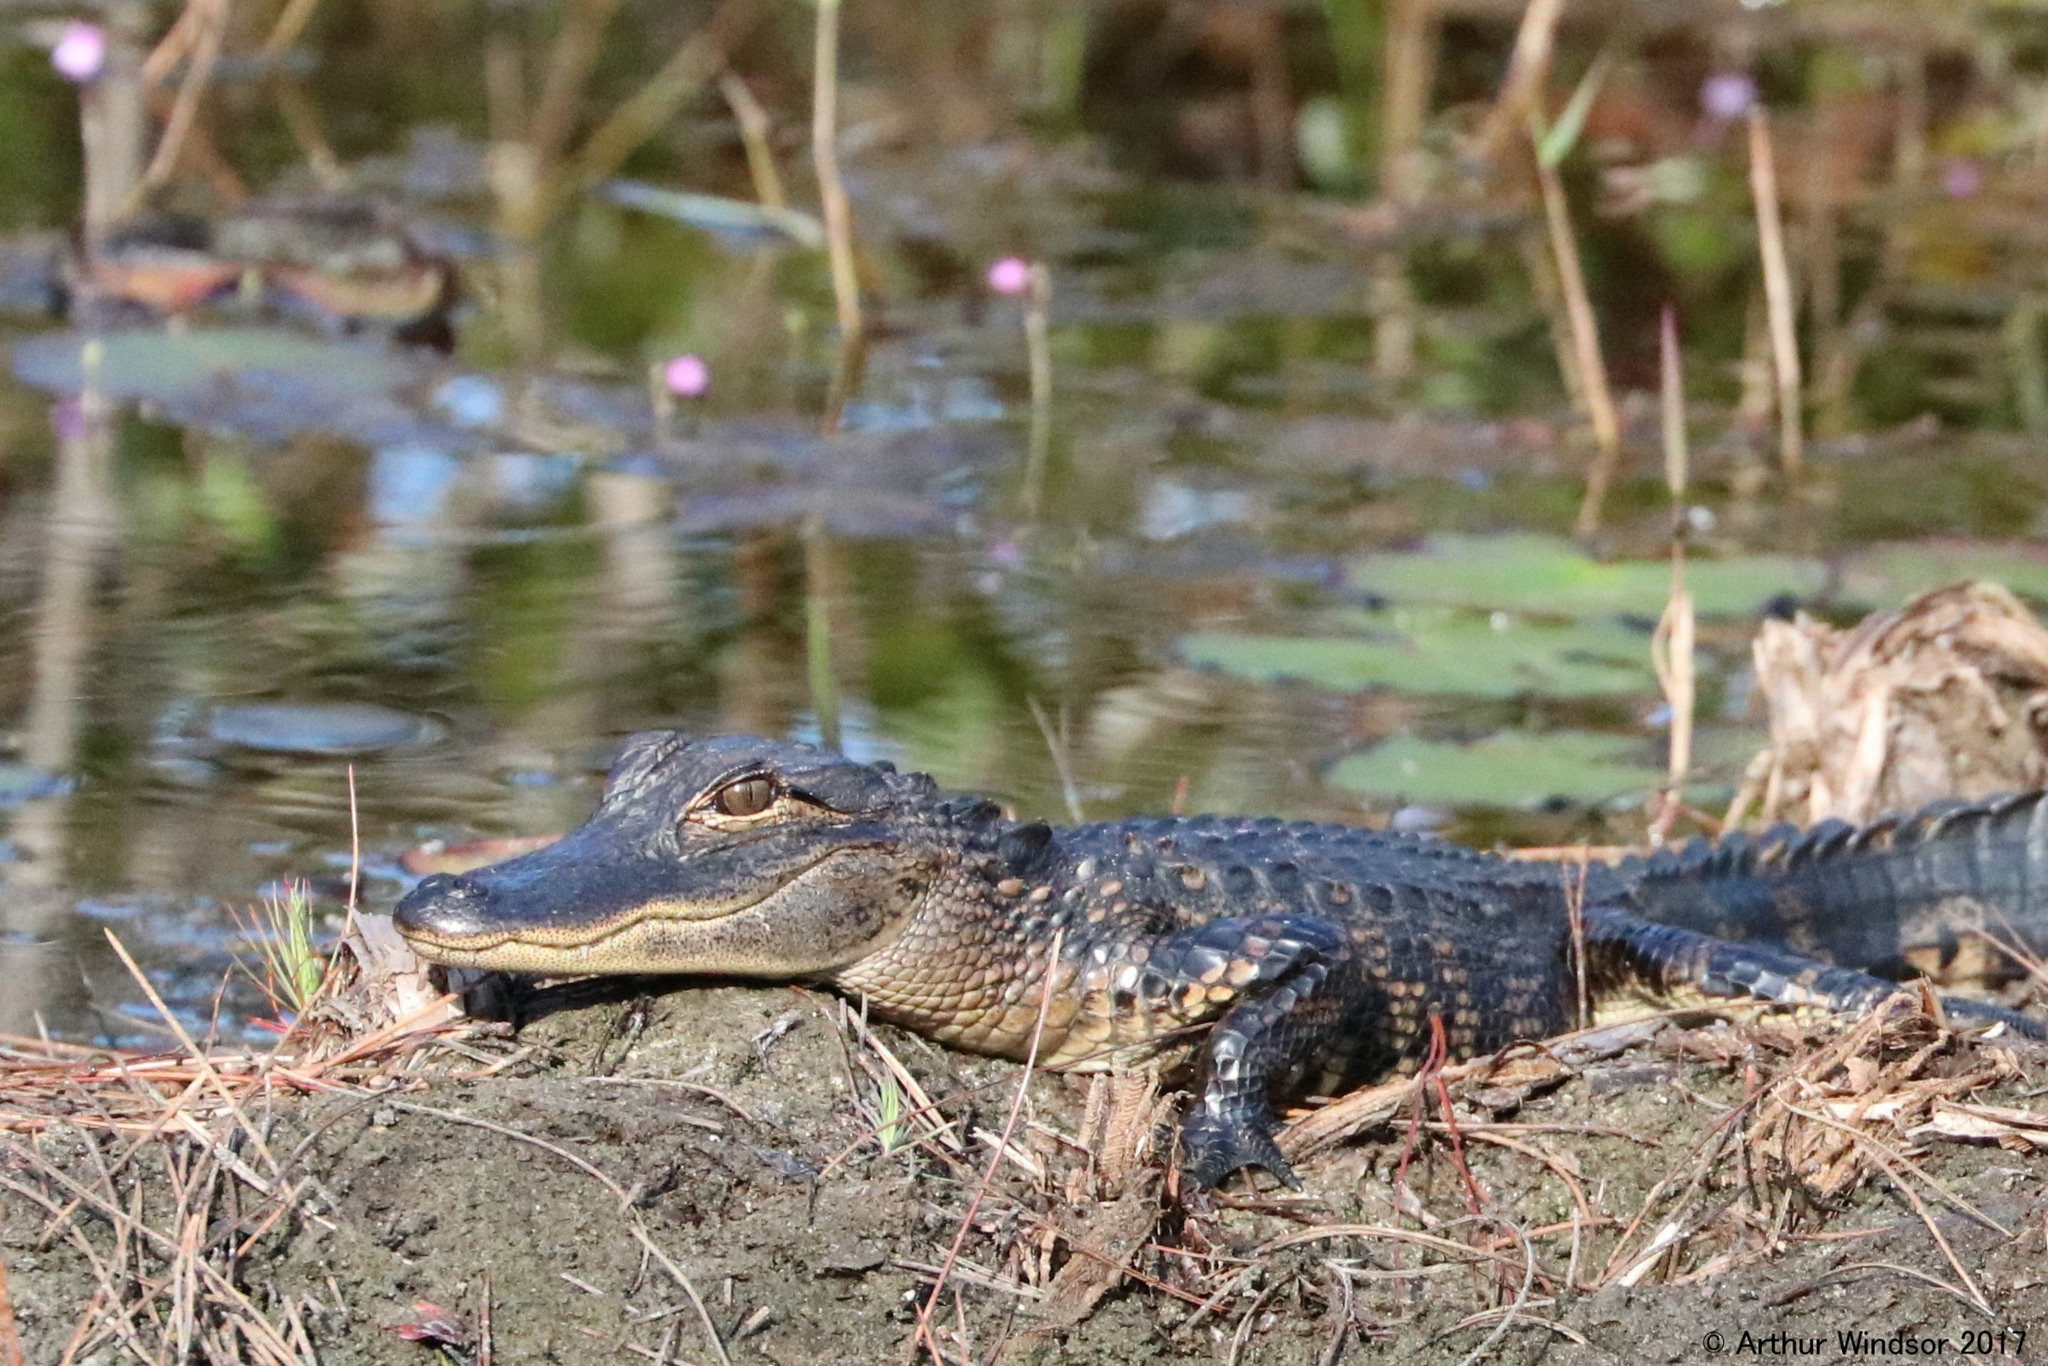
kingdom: Animalia
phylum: Chordata
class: Crocodylia
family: Alligatoridae
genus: Alligator
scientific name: Alligator mississippiensis
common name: American alligator
